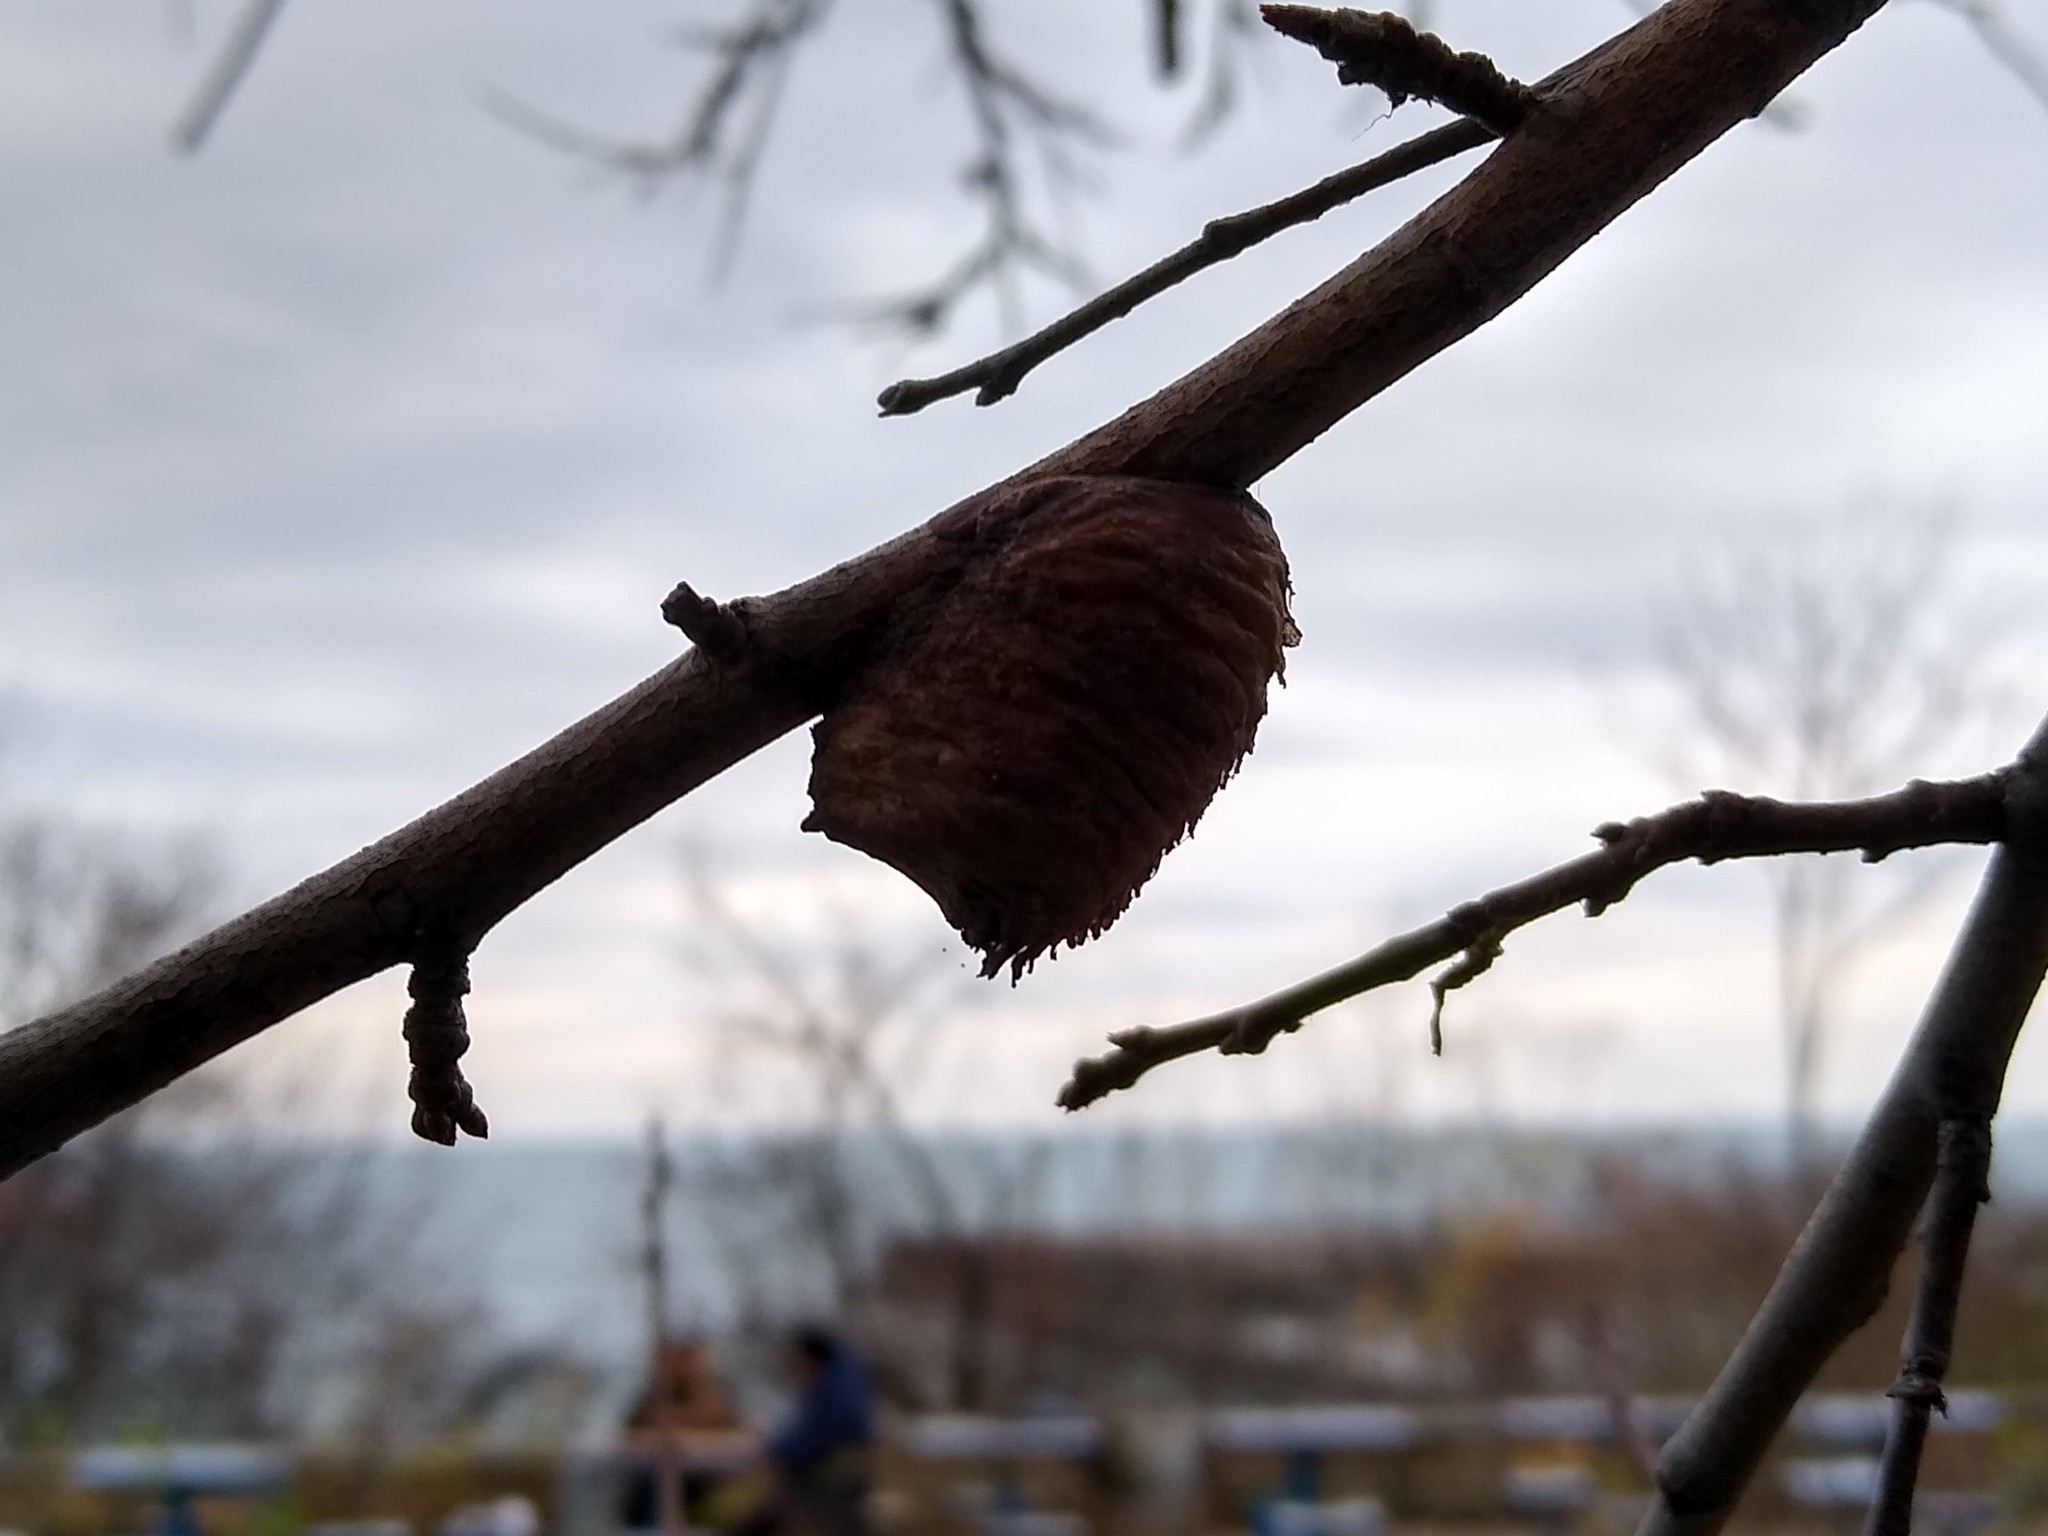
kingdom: Animalia
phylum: Arthropoda
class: Insecta
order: Mantodea
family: Mantidae
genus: Hierodula
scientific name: Hierodula transcaucasica
